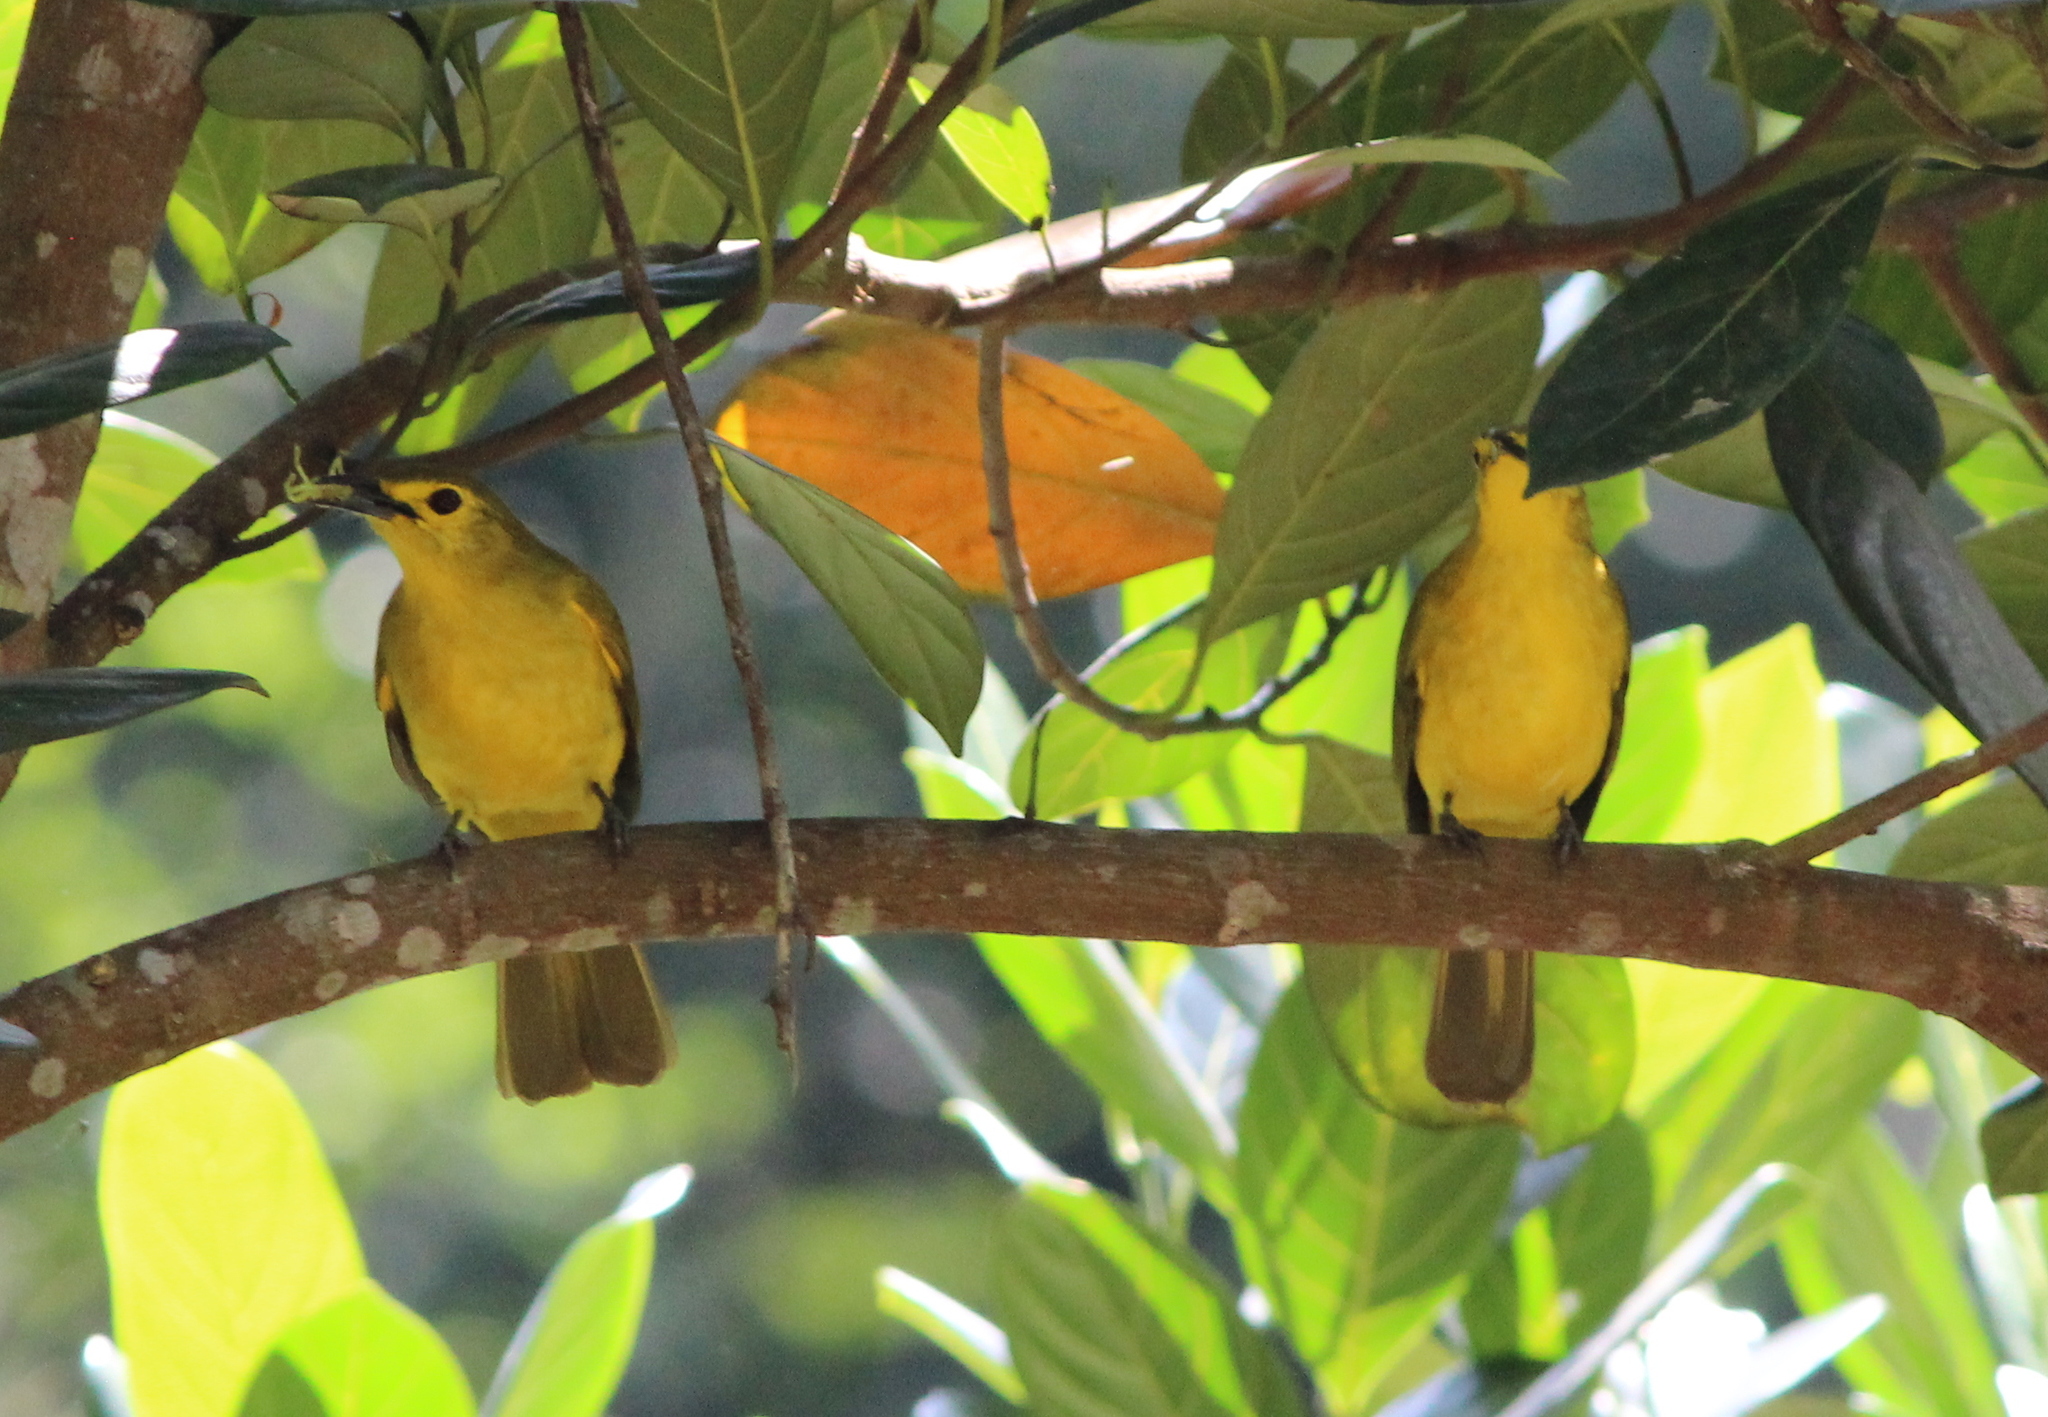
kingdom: Animalia
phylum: Chordata
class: Aves
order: Passeriformes
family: Pycnonotidae
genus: Acritillas
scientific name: Acritillas indica
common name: Yellow-browed bulbul
